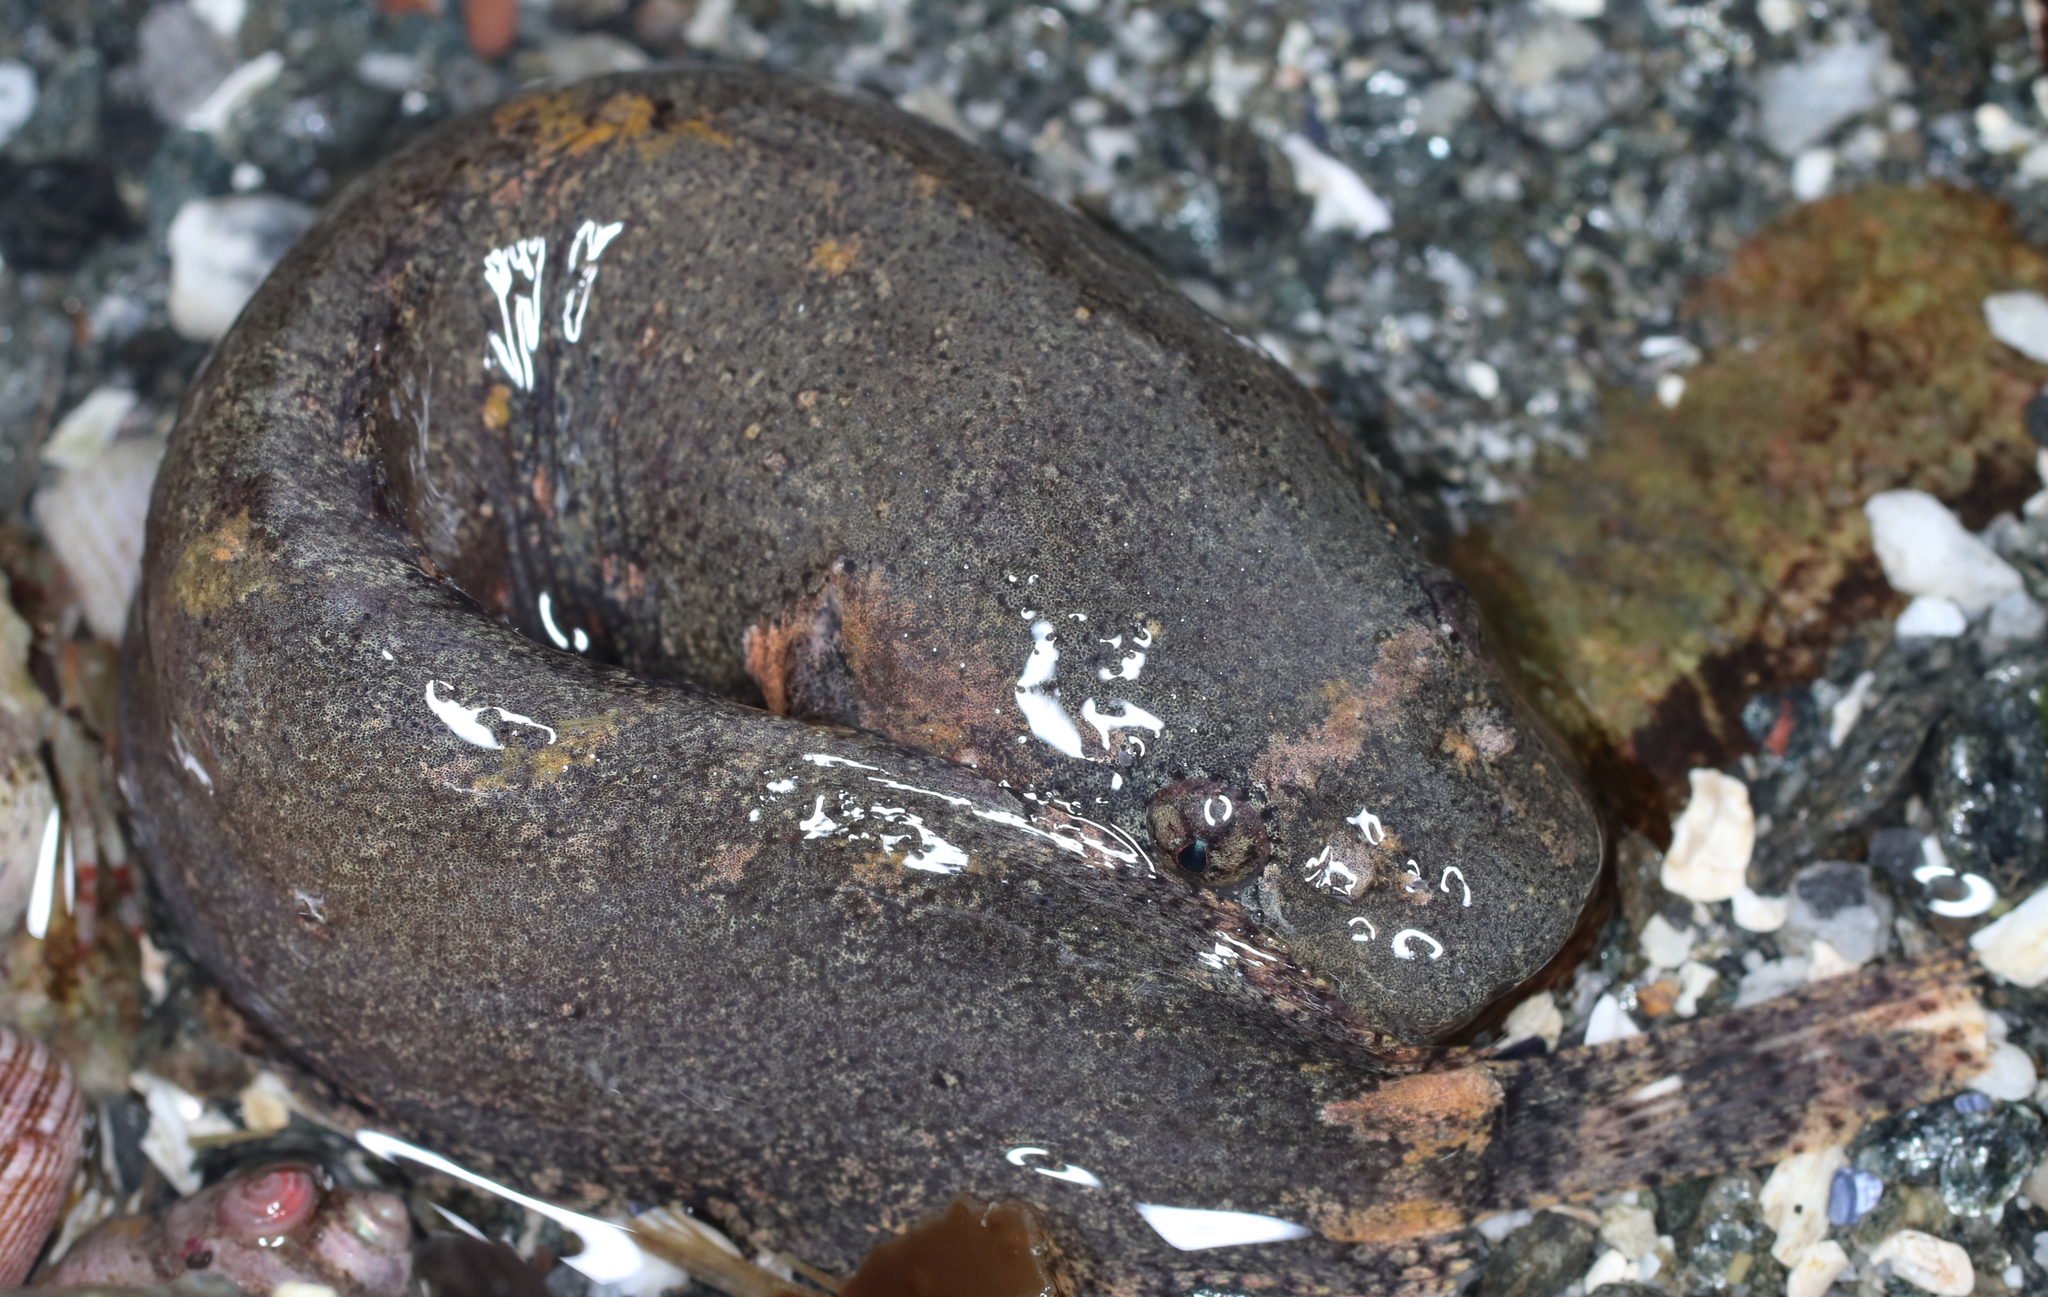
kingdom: Animalia
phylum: Chordata
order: Scorpaeniformes
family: Liparidae
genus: Liparis
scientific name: Liparis florae
